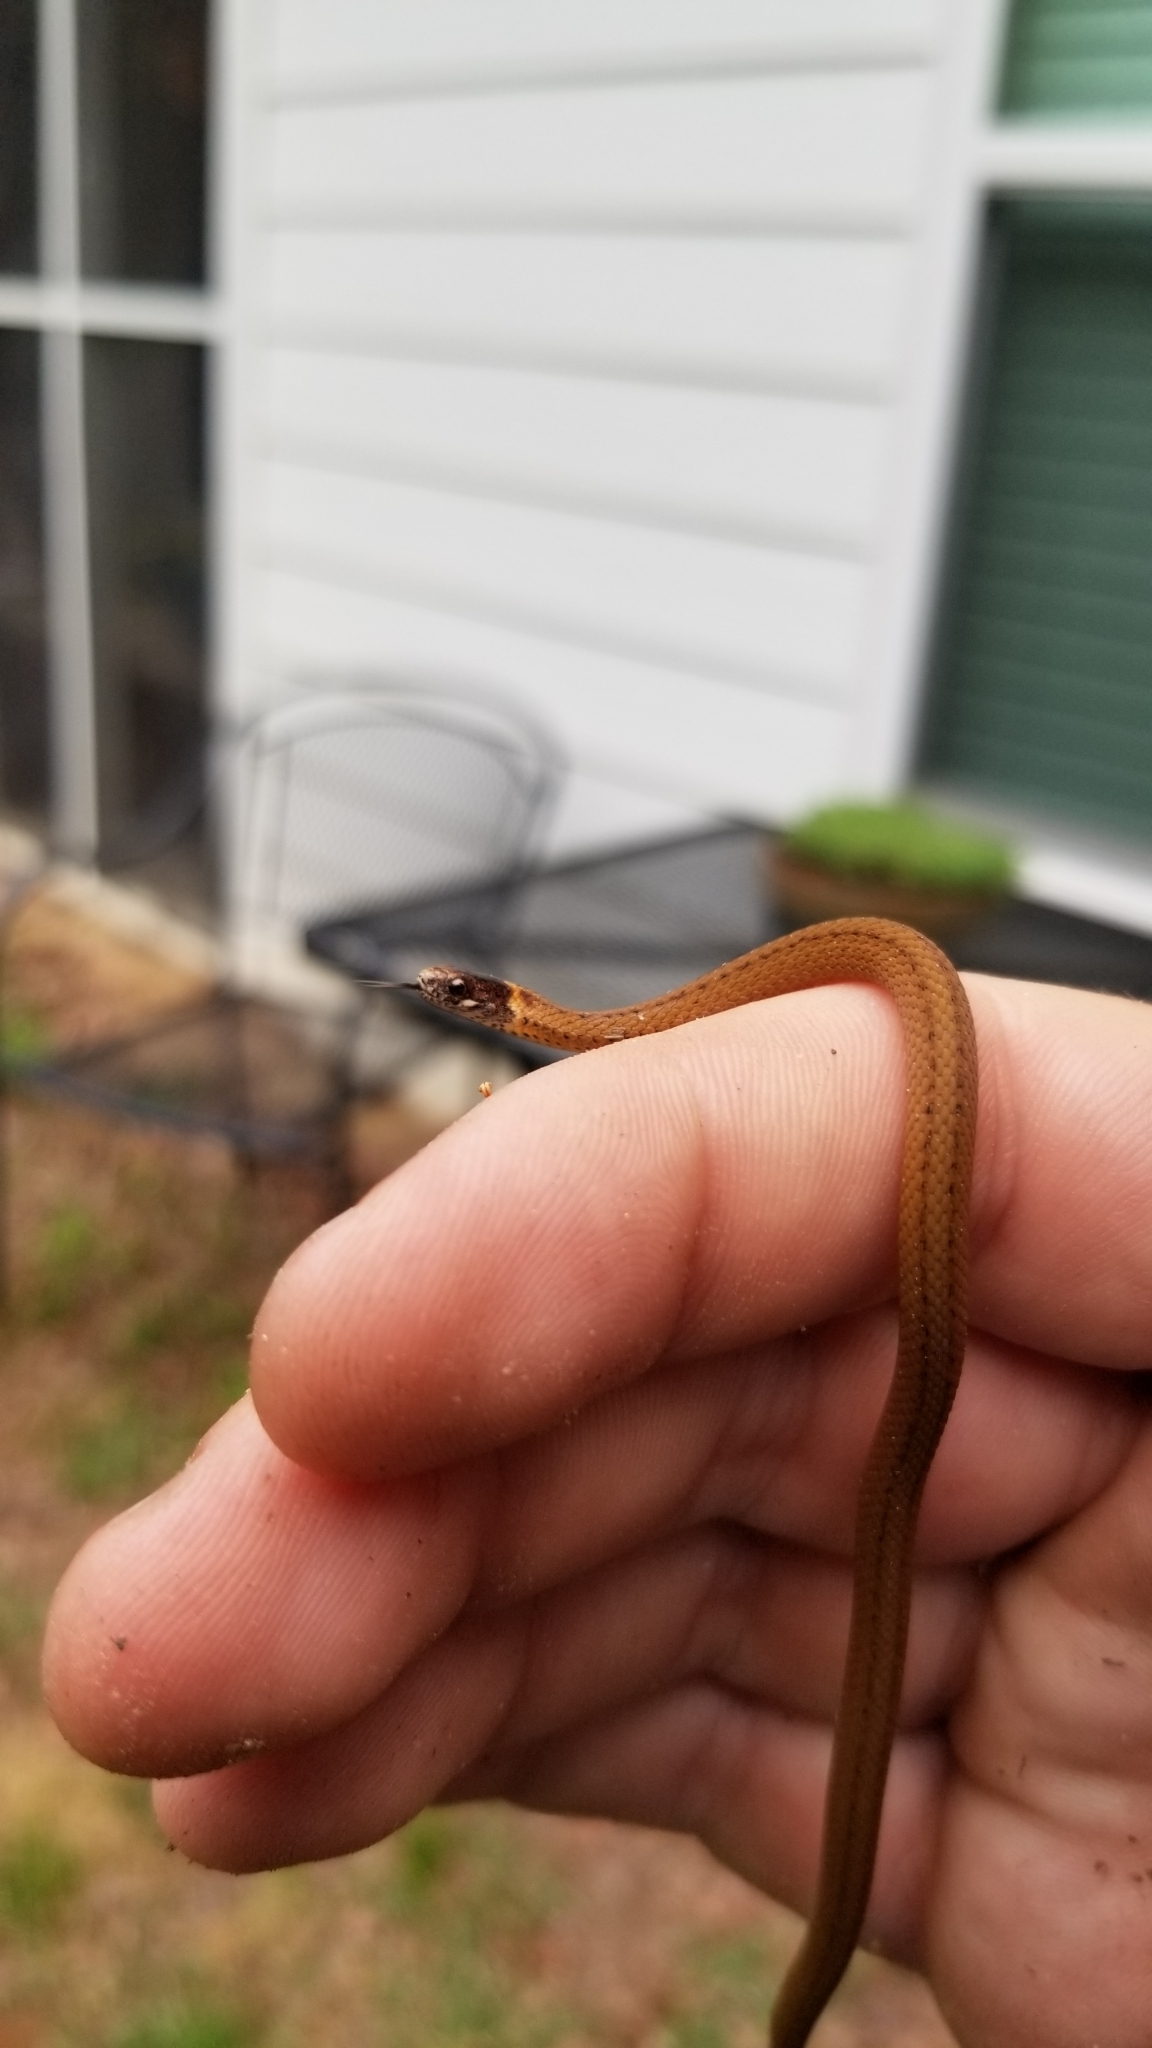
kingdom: Animalia
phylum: Chordata
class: Squamata
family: Colubridae
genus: Storeria
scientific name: Storeria occipitomaculata
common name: Redbelly snake
